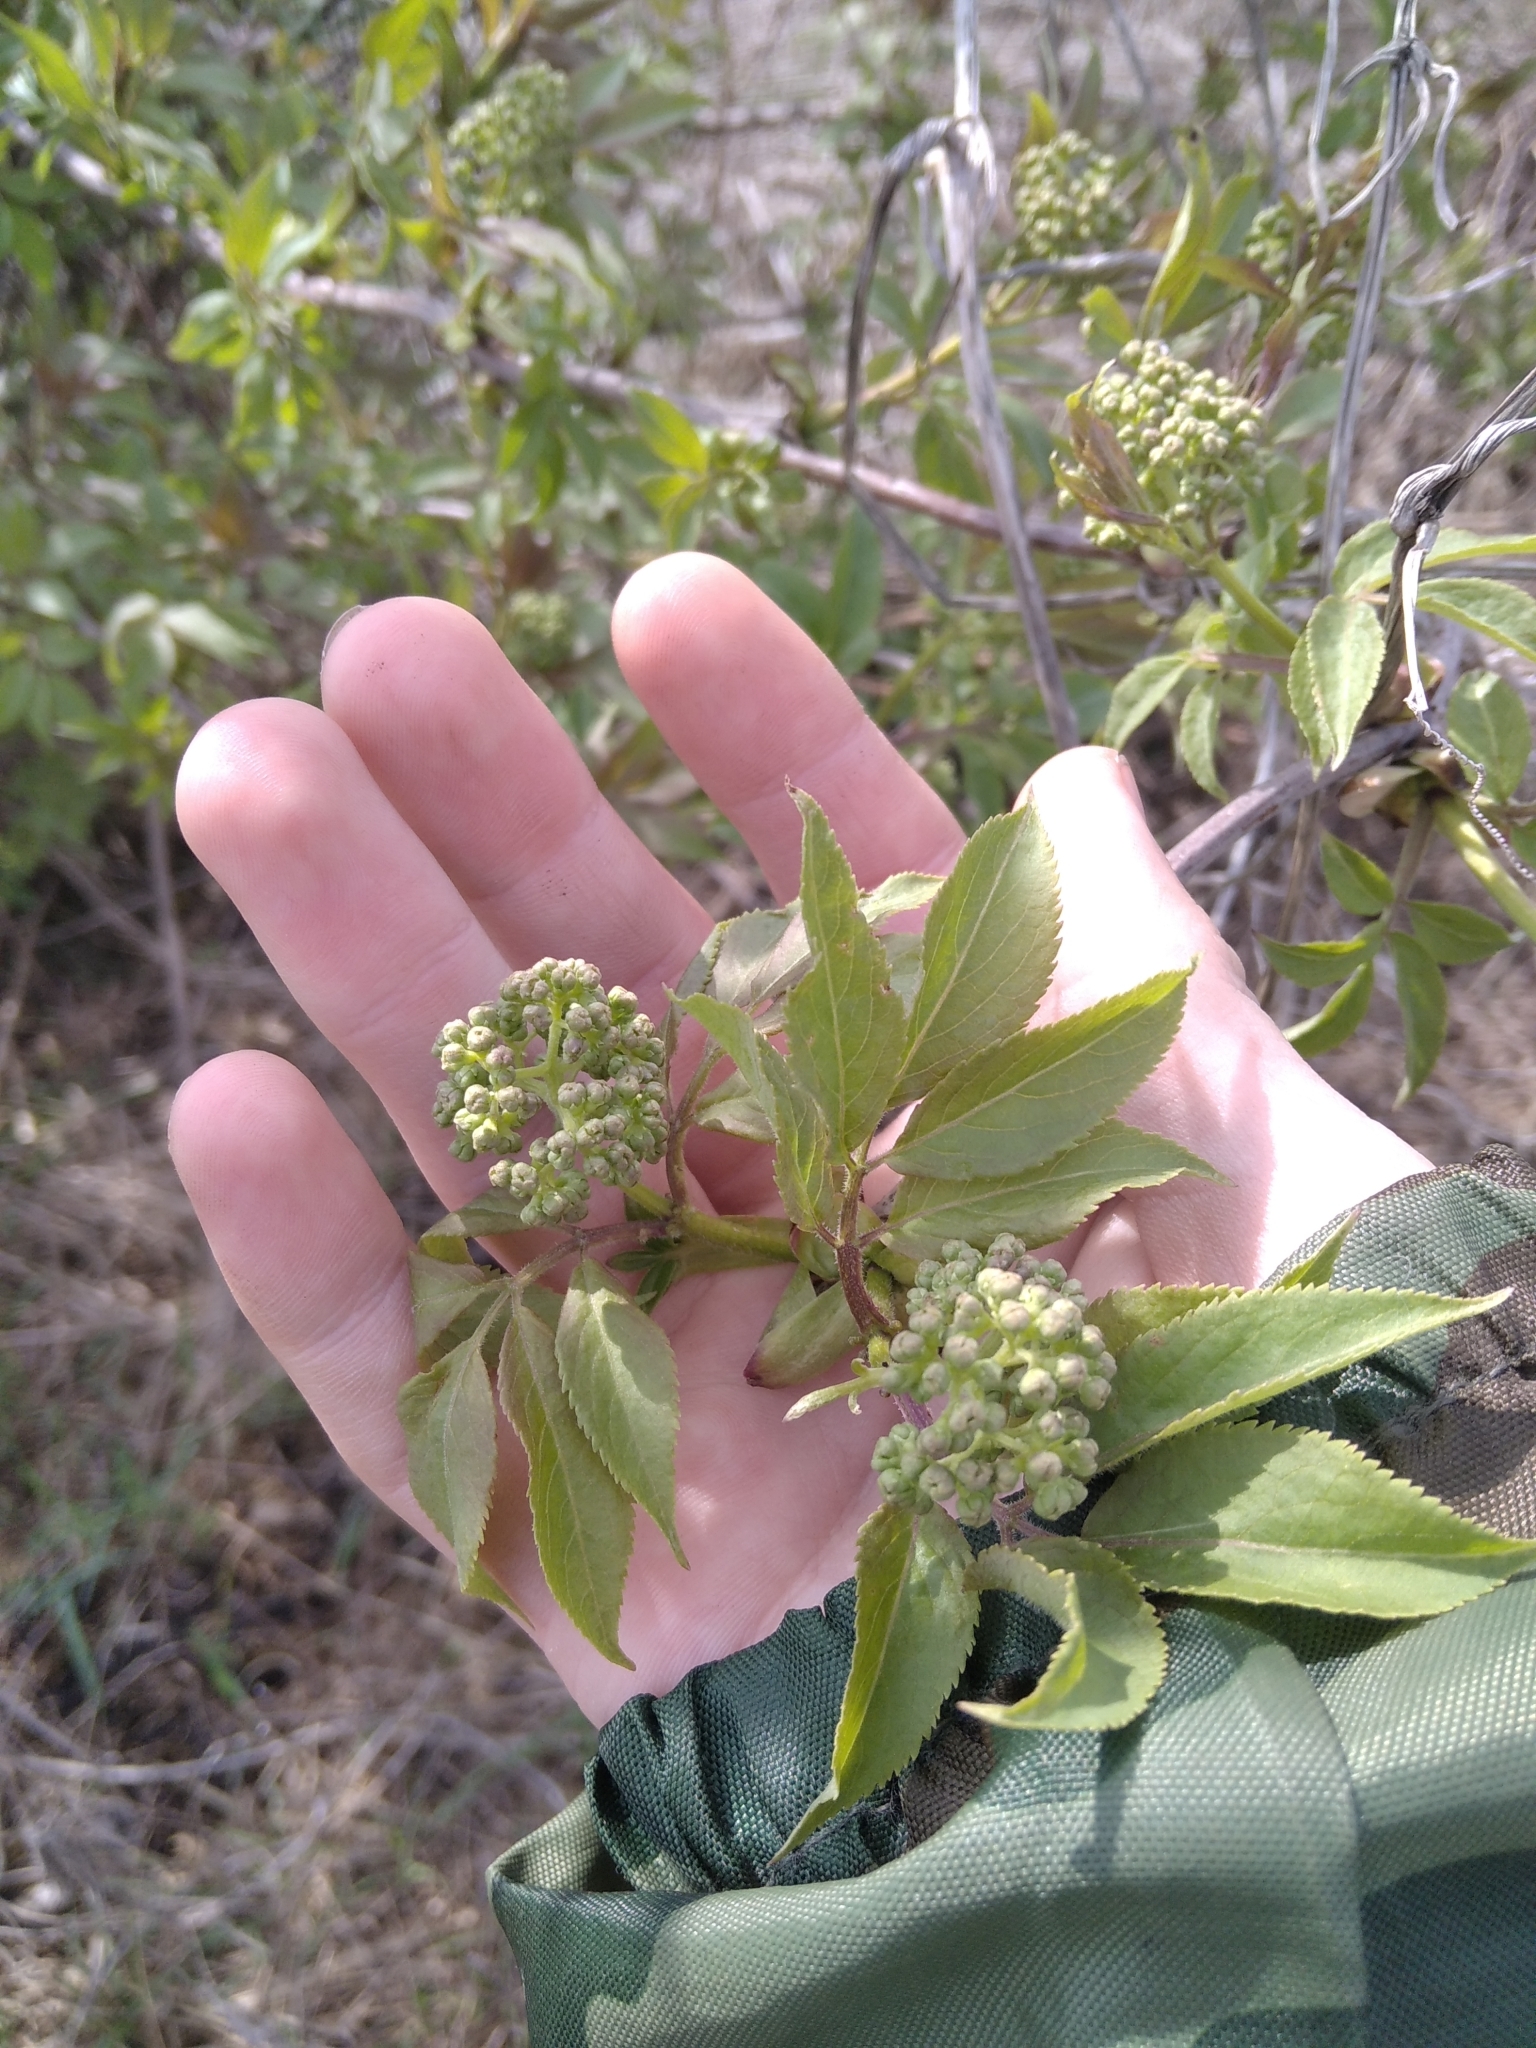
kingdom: Plantae
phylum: Tracheophyta
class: Magnoliopsida
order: Dipsacales
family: Viburnaceae
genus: Sambucus
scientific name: Sambucus racemosa
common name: Red-berried elder
